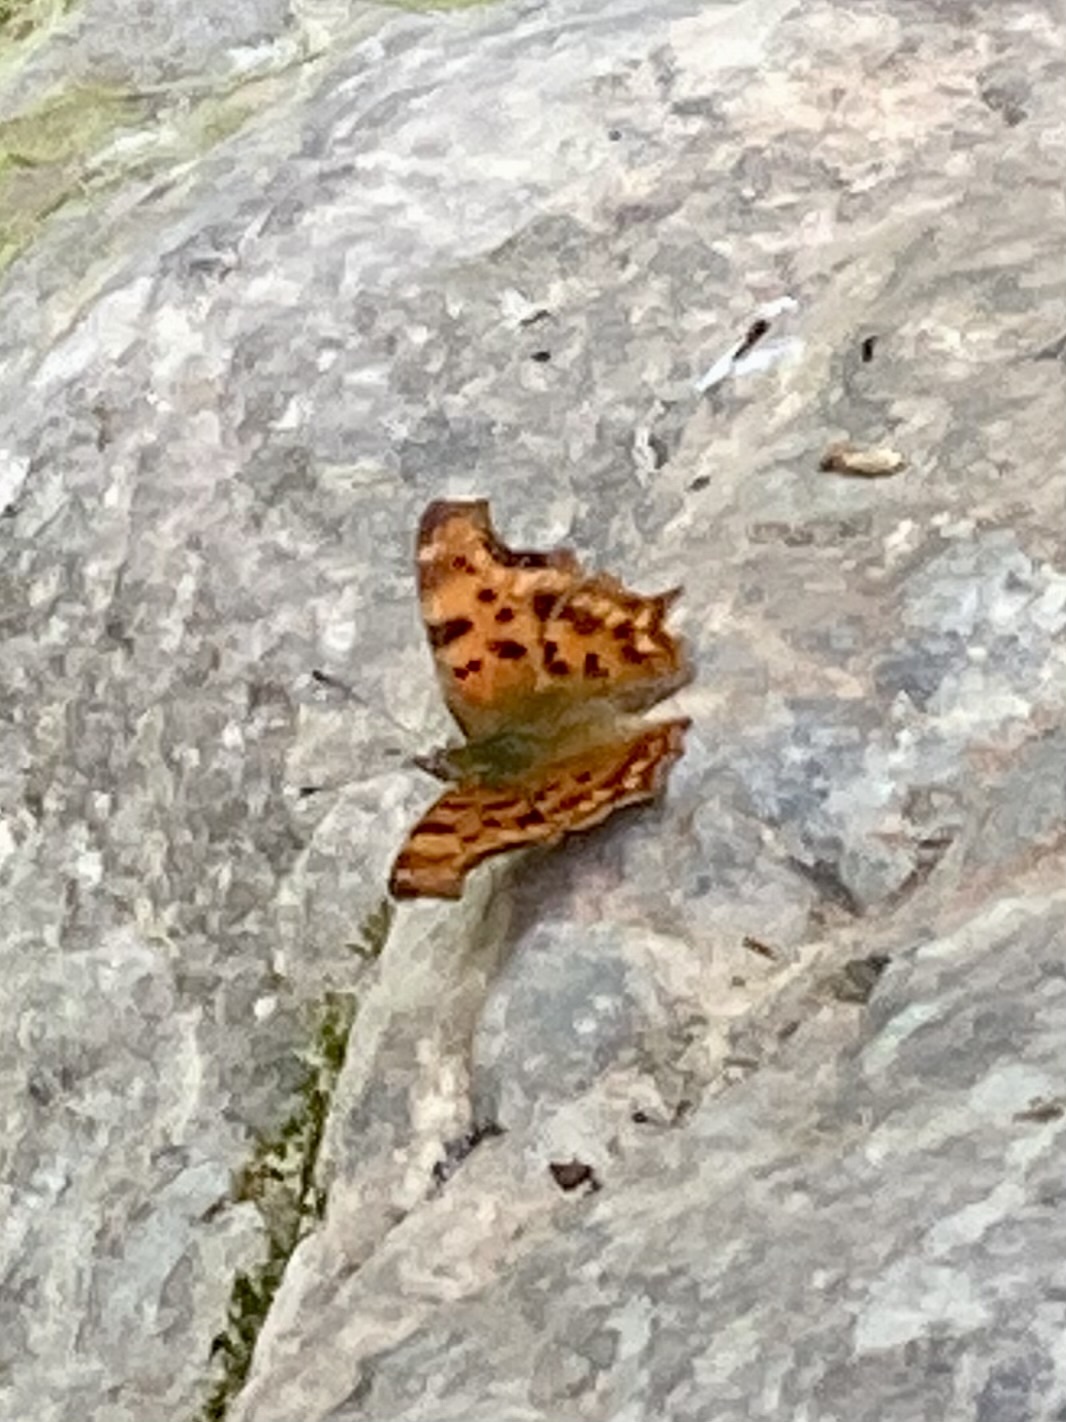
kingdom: Animalia
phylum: Arthropoda
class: Insecta
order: Lepidoptera
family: Nymphalidae
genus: Polygonia
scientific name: Polygonia c-album
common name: Comma
